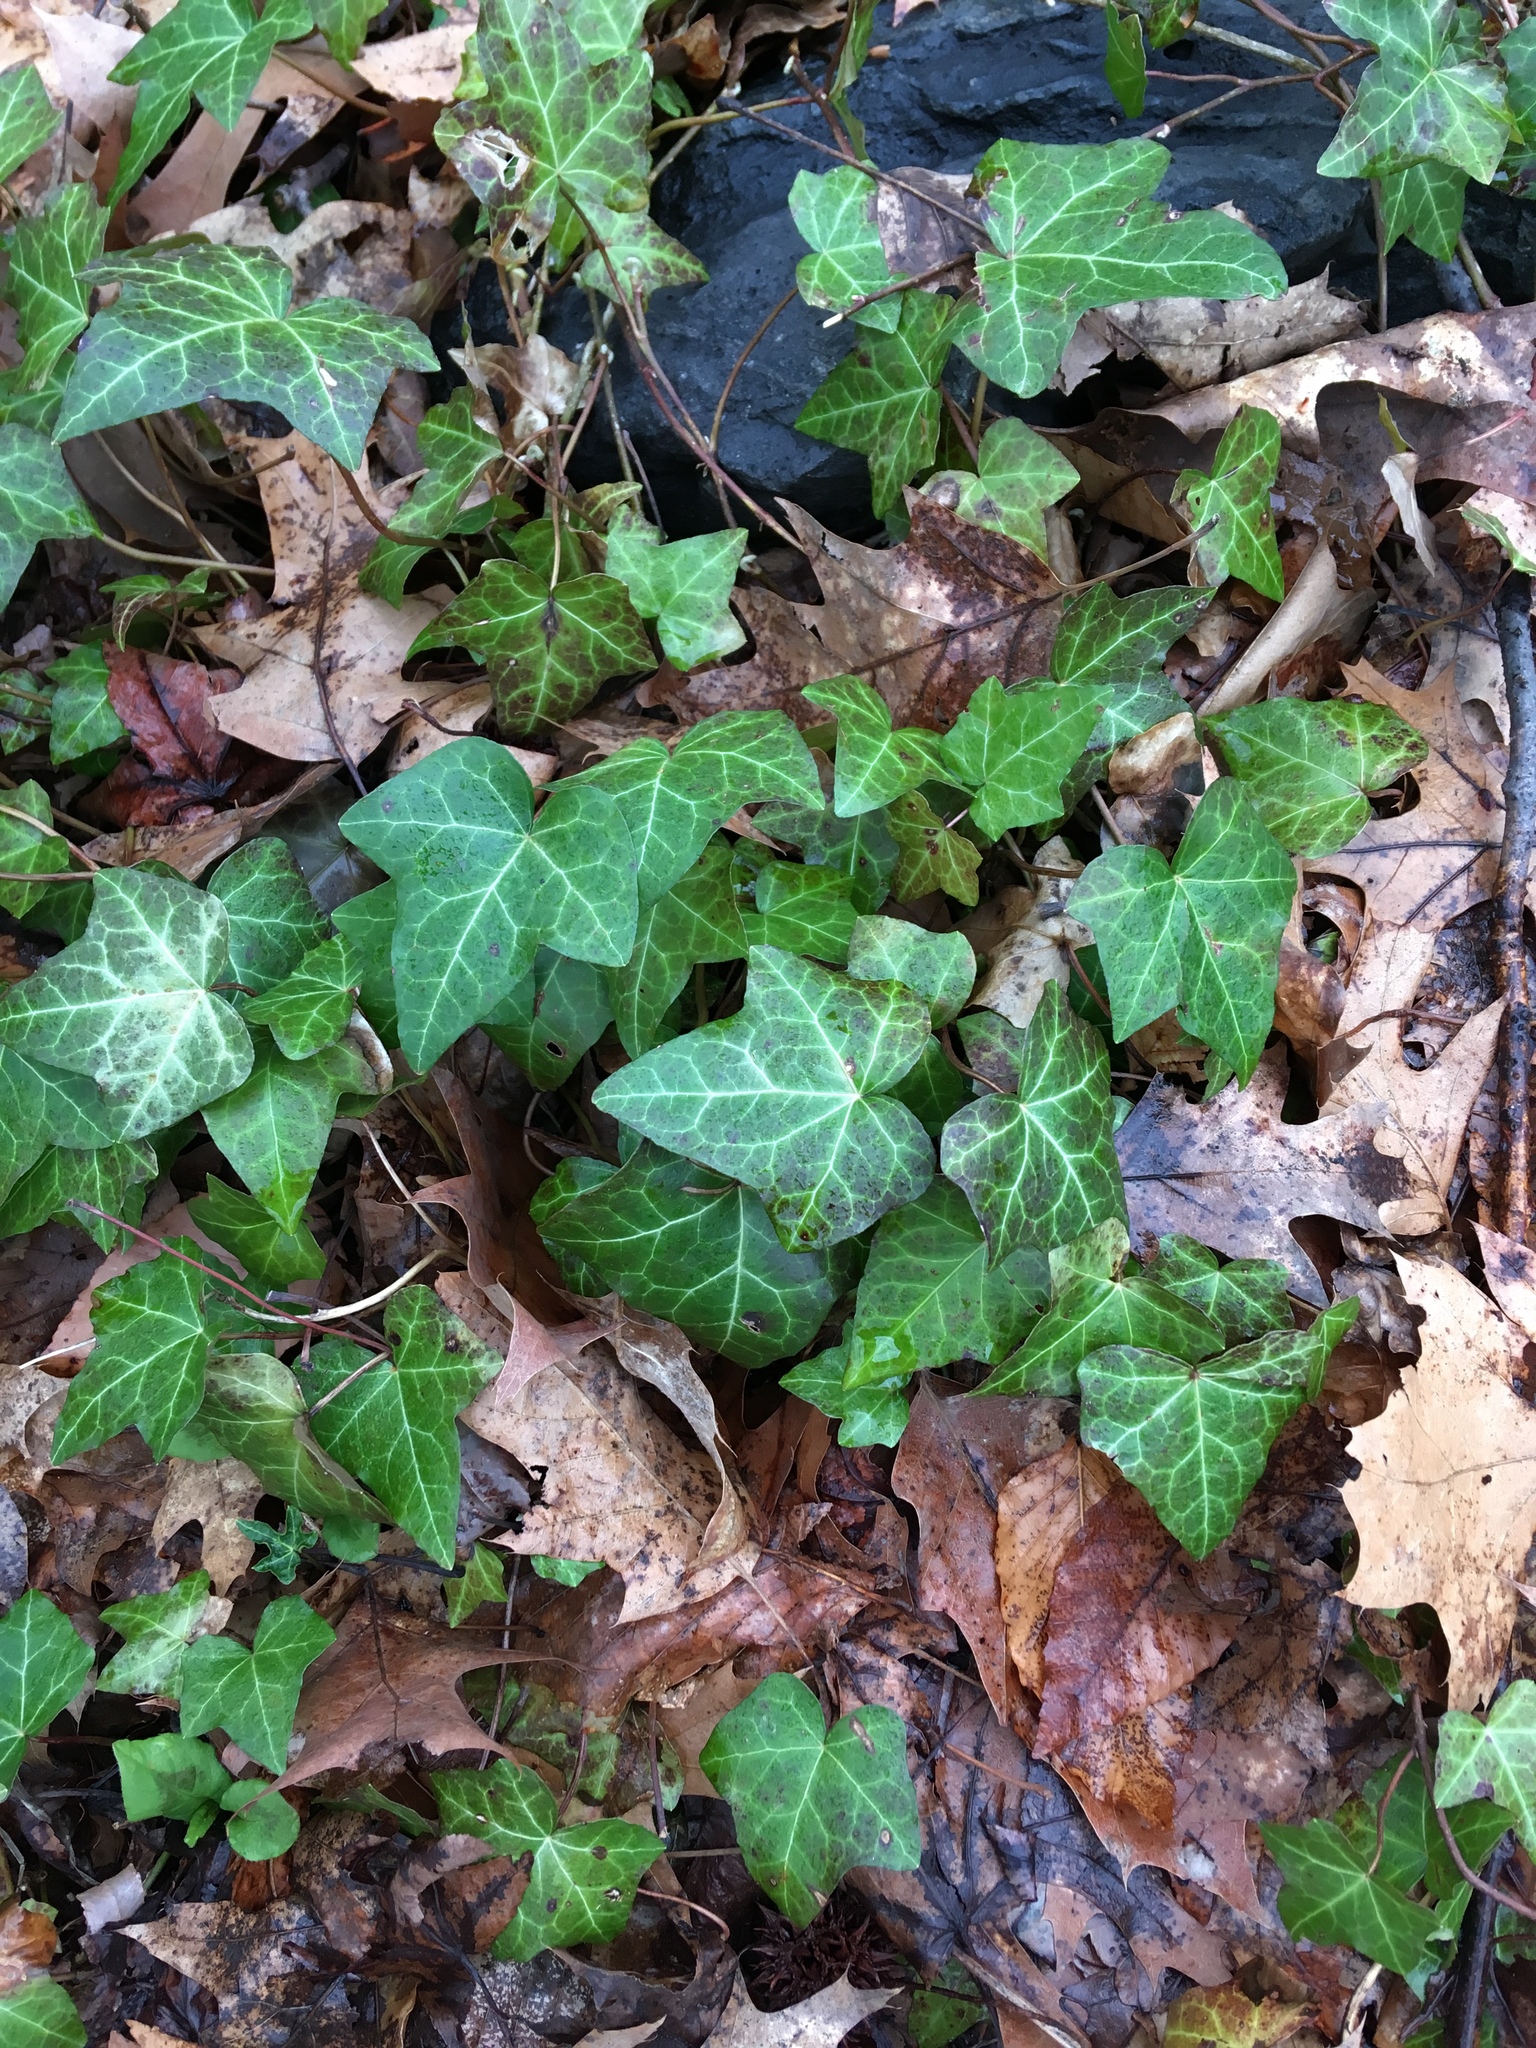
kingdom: Plantae
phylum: Tracheophyta
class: Magnoliopsida
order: Apiales
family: Araliaceae
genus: Hedera
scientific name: Hedera helix
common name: Ivy
